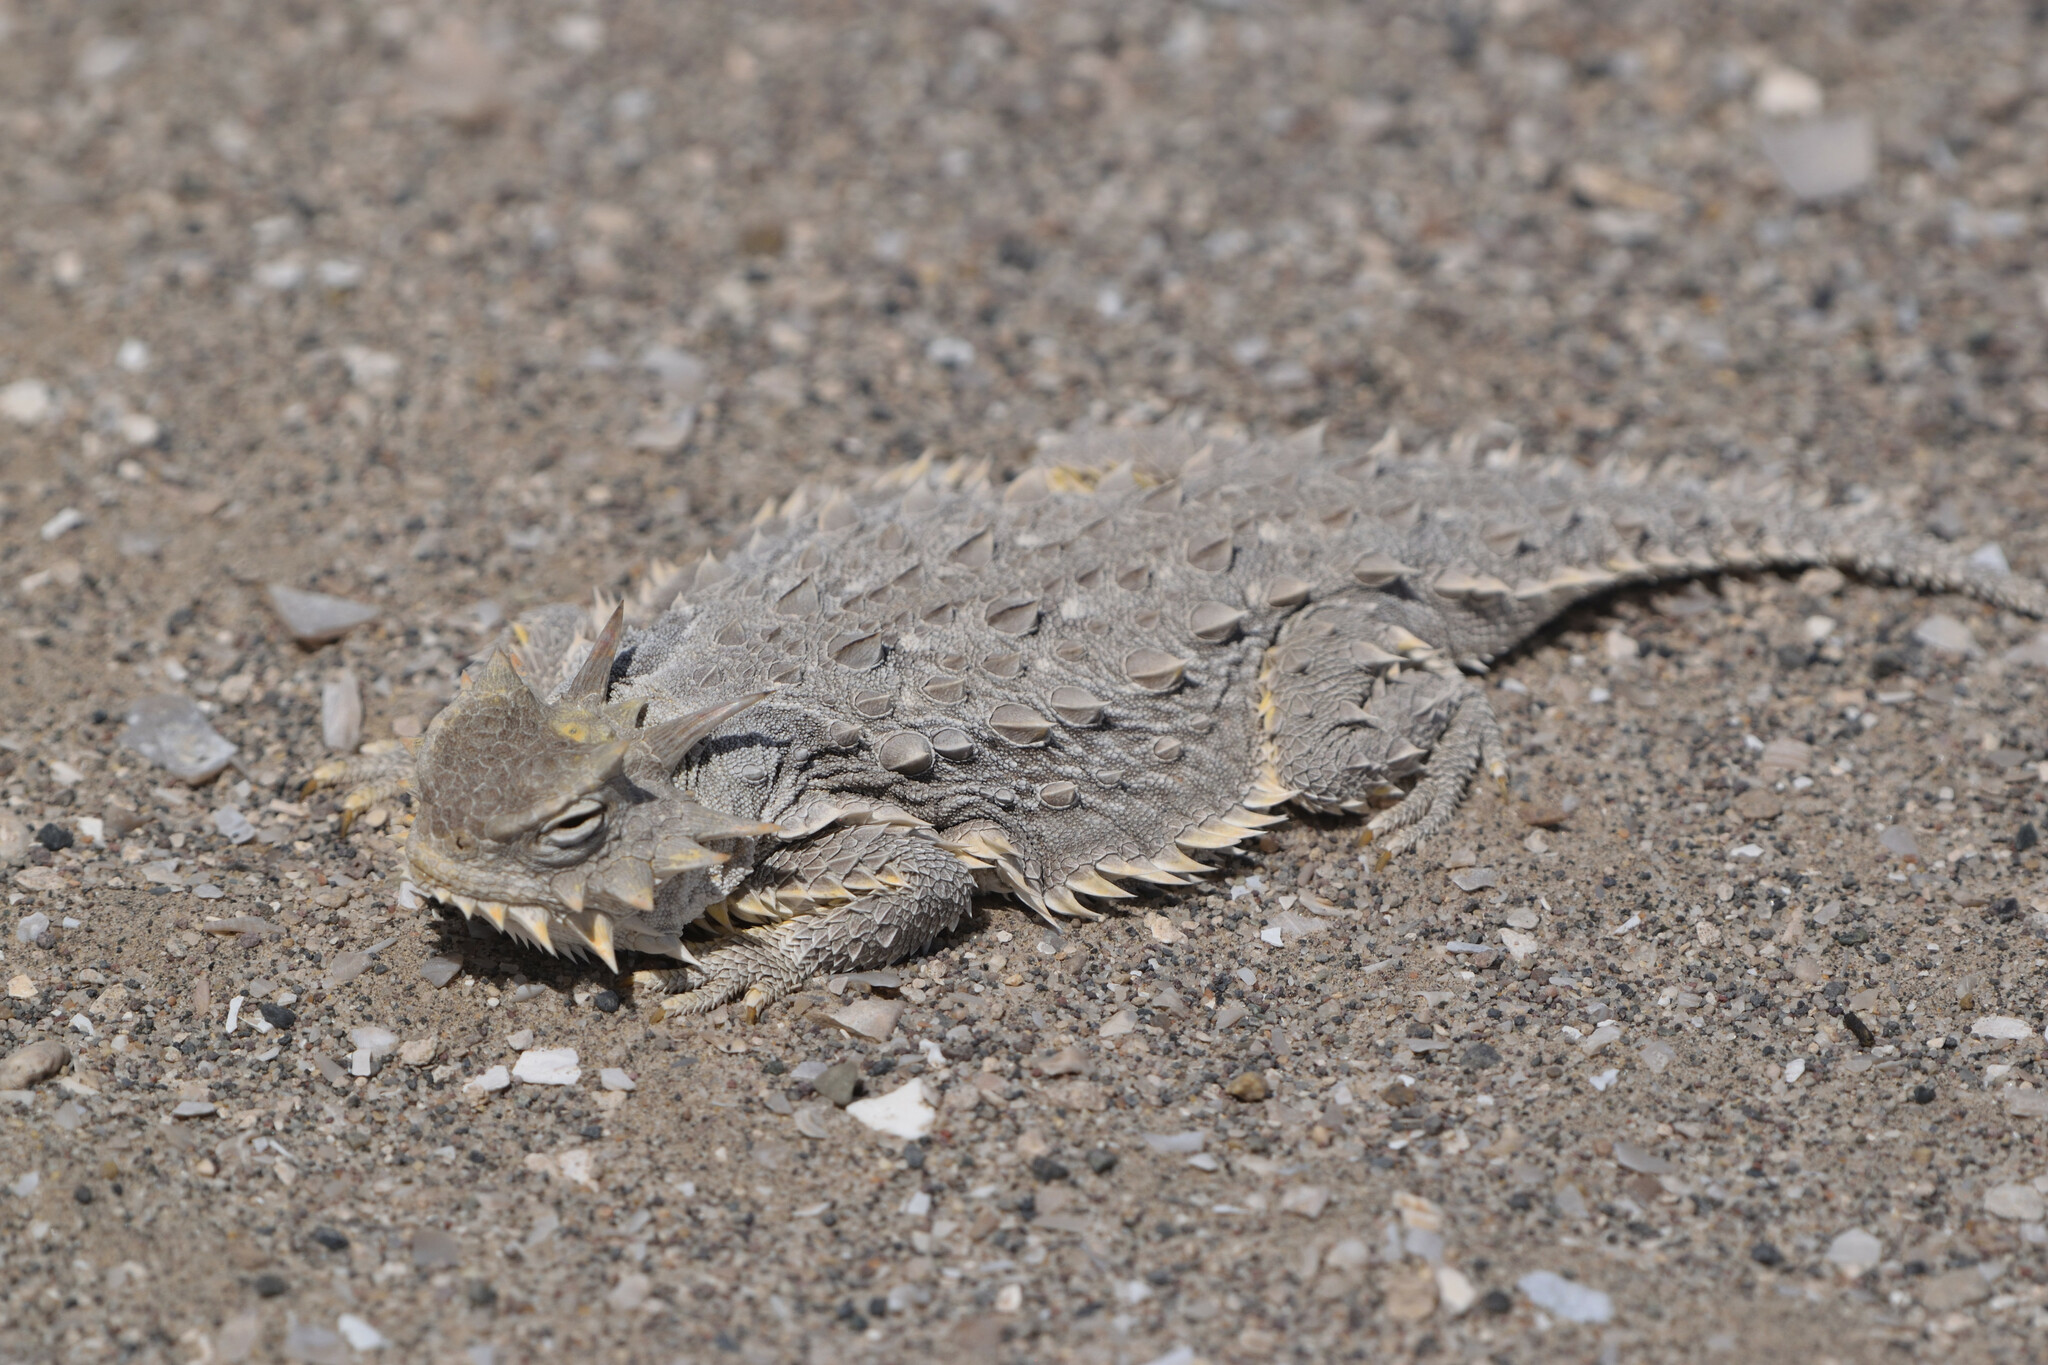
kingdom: Animalia
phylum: Chordata
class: Squamata
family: Phrynosomatidae
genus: Phrynosoma
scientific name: Phrynosoma cerroense
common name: Cedros island horned lizard
